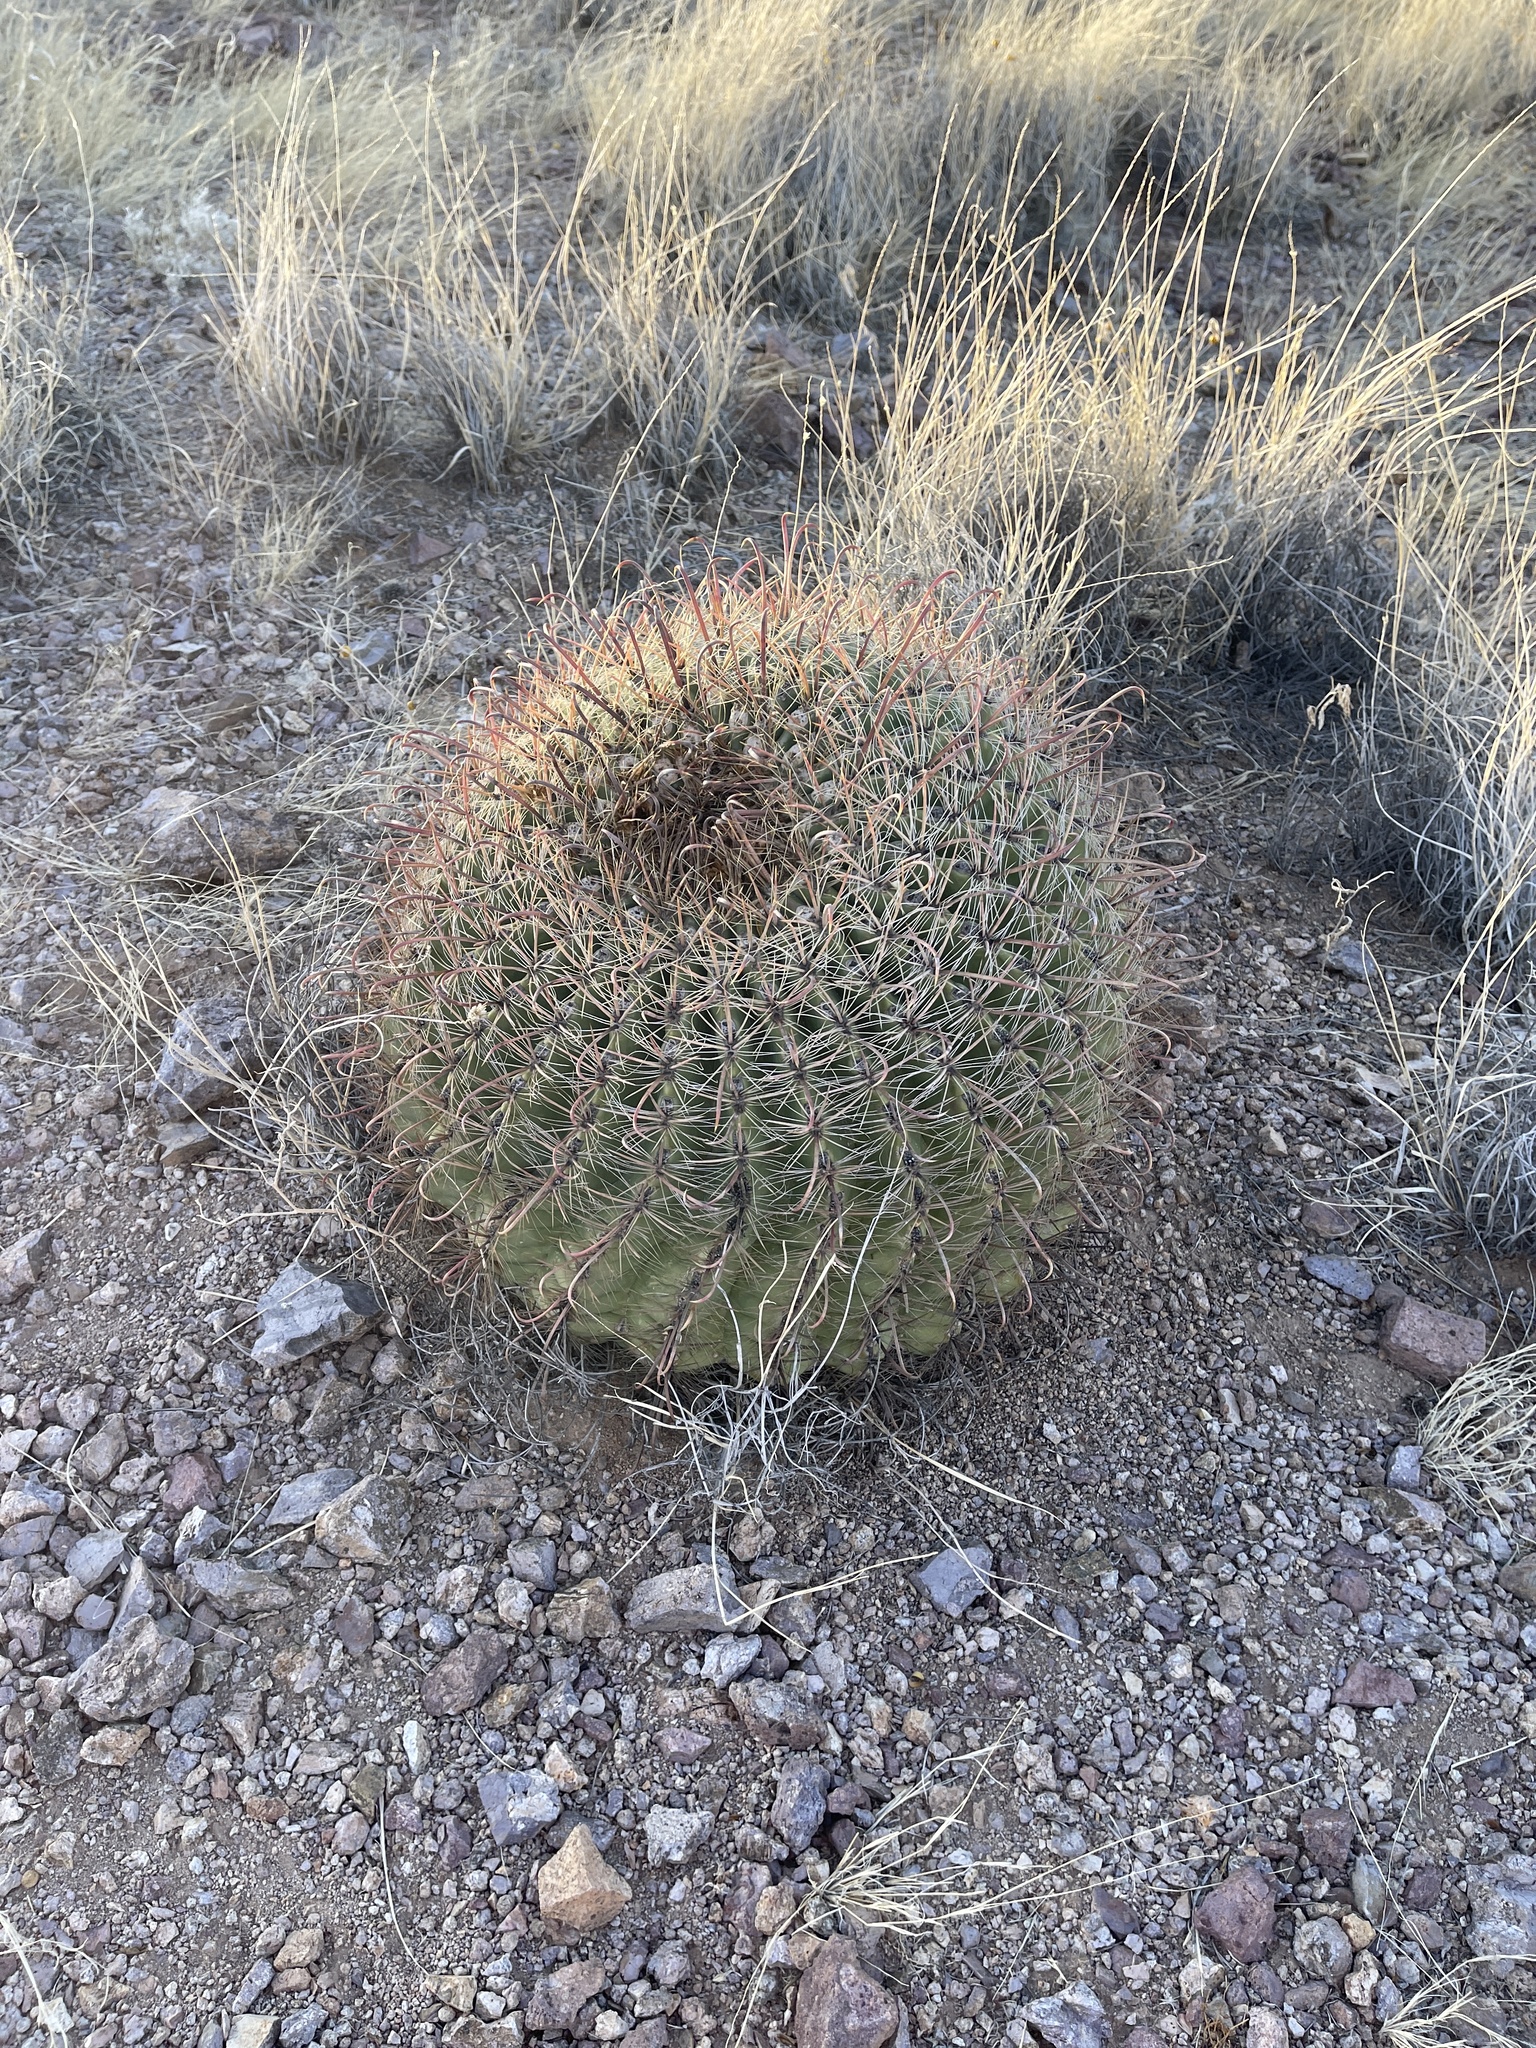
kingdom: Plantae
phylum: Tracheophyta
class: Magnoliopsida
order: Caryophyllales
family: Cactaceae
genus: Ferocactus
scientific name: Ferocactus wislizeni
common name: Candy barrel cactus
